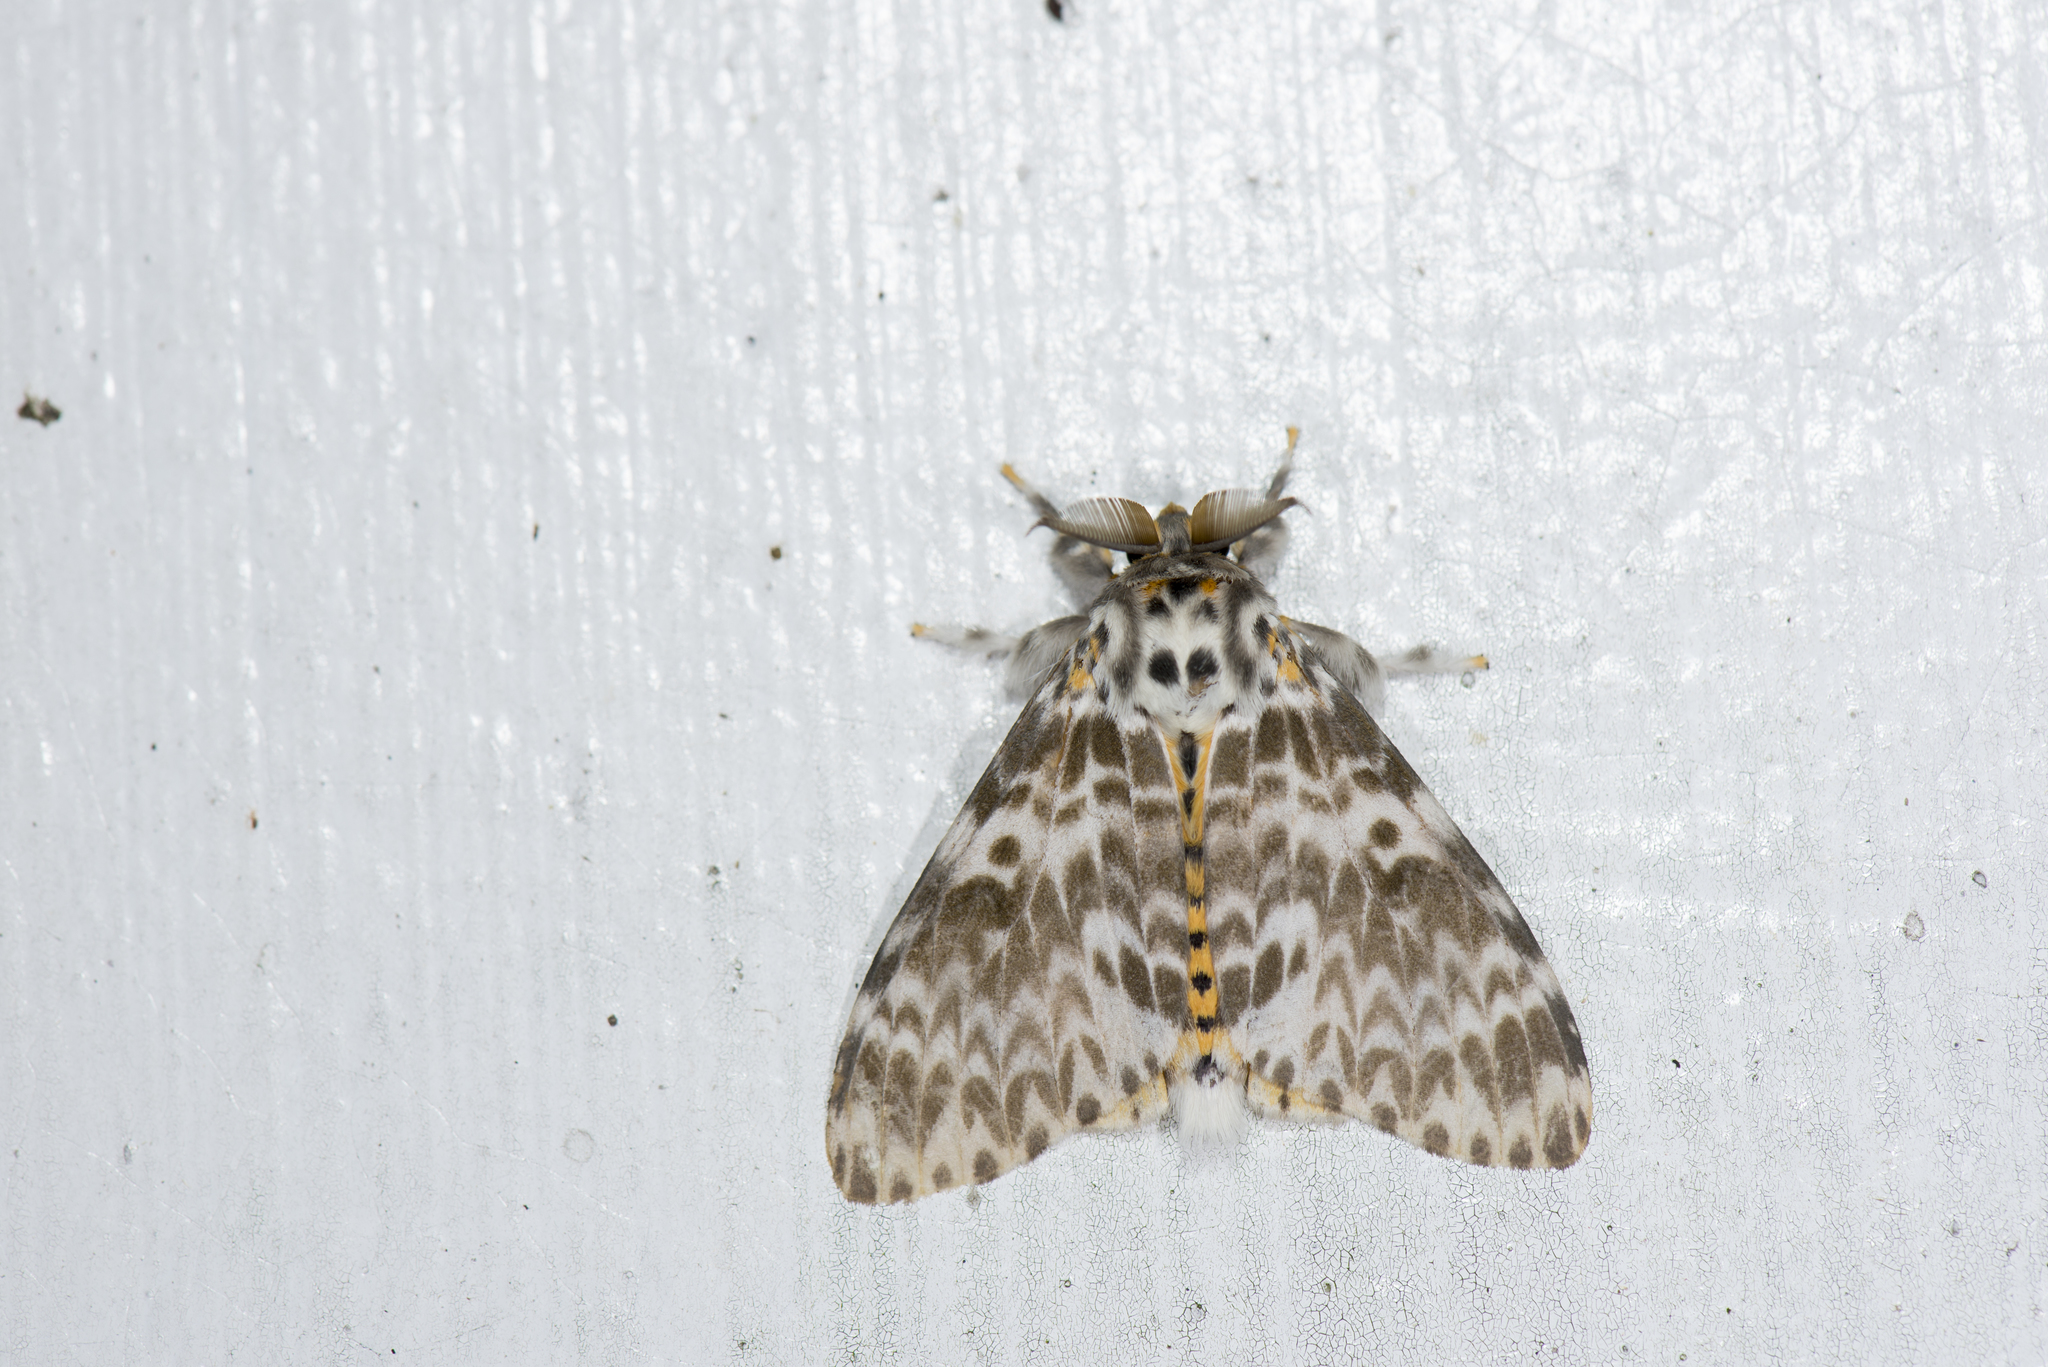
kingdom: Animalia
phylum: Arthropoda
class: Insecta
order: Lepidoptera
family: Erebidae
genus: Lymantria
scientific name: Lymantria mathura
